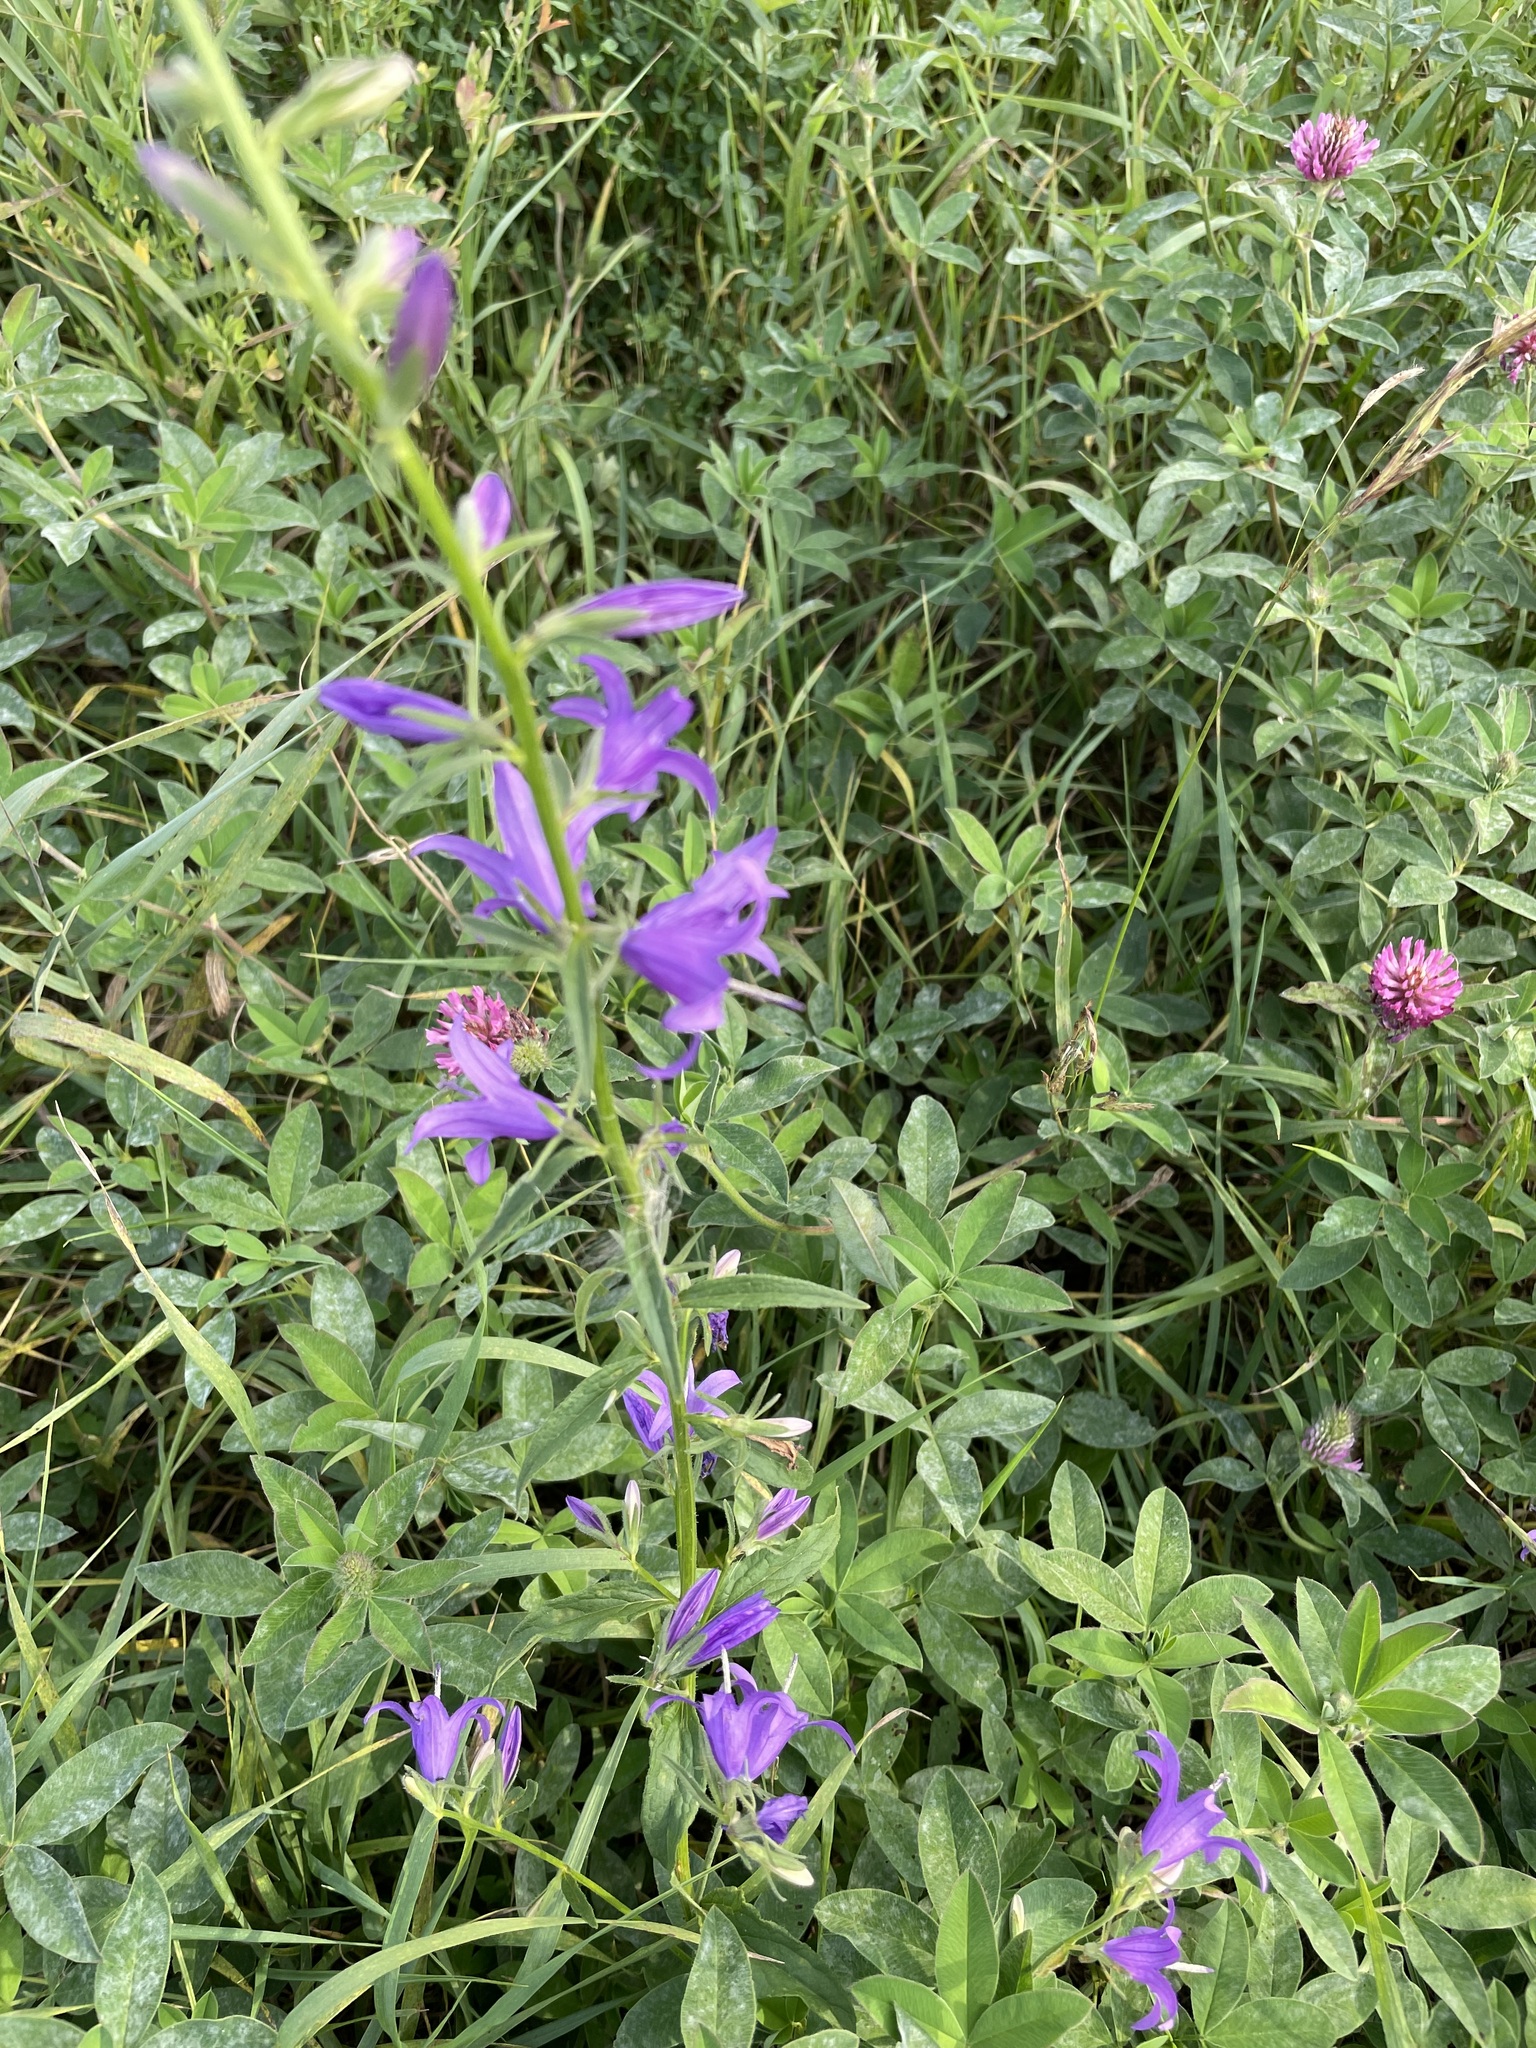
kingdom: Plantae
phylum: Tracheophyta
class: Magnoliopsida
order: Asterales
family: Campanulaceae
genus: Campanula
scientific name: Campanula rapunculoides
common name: Creeping bellflower
